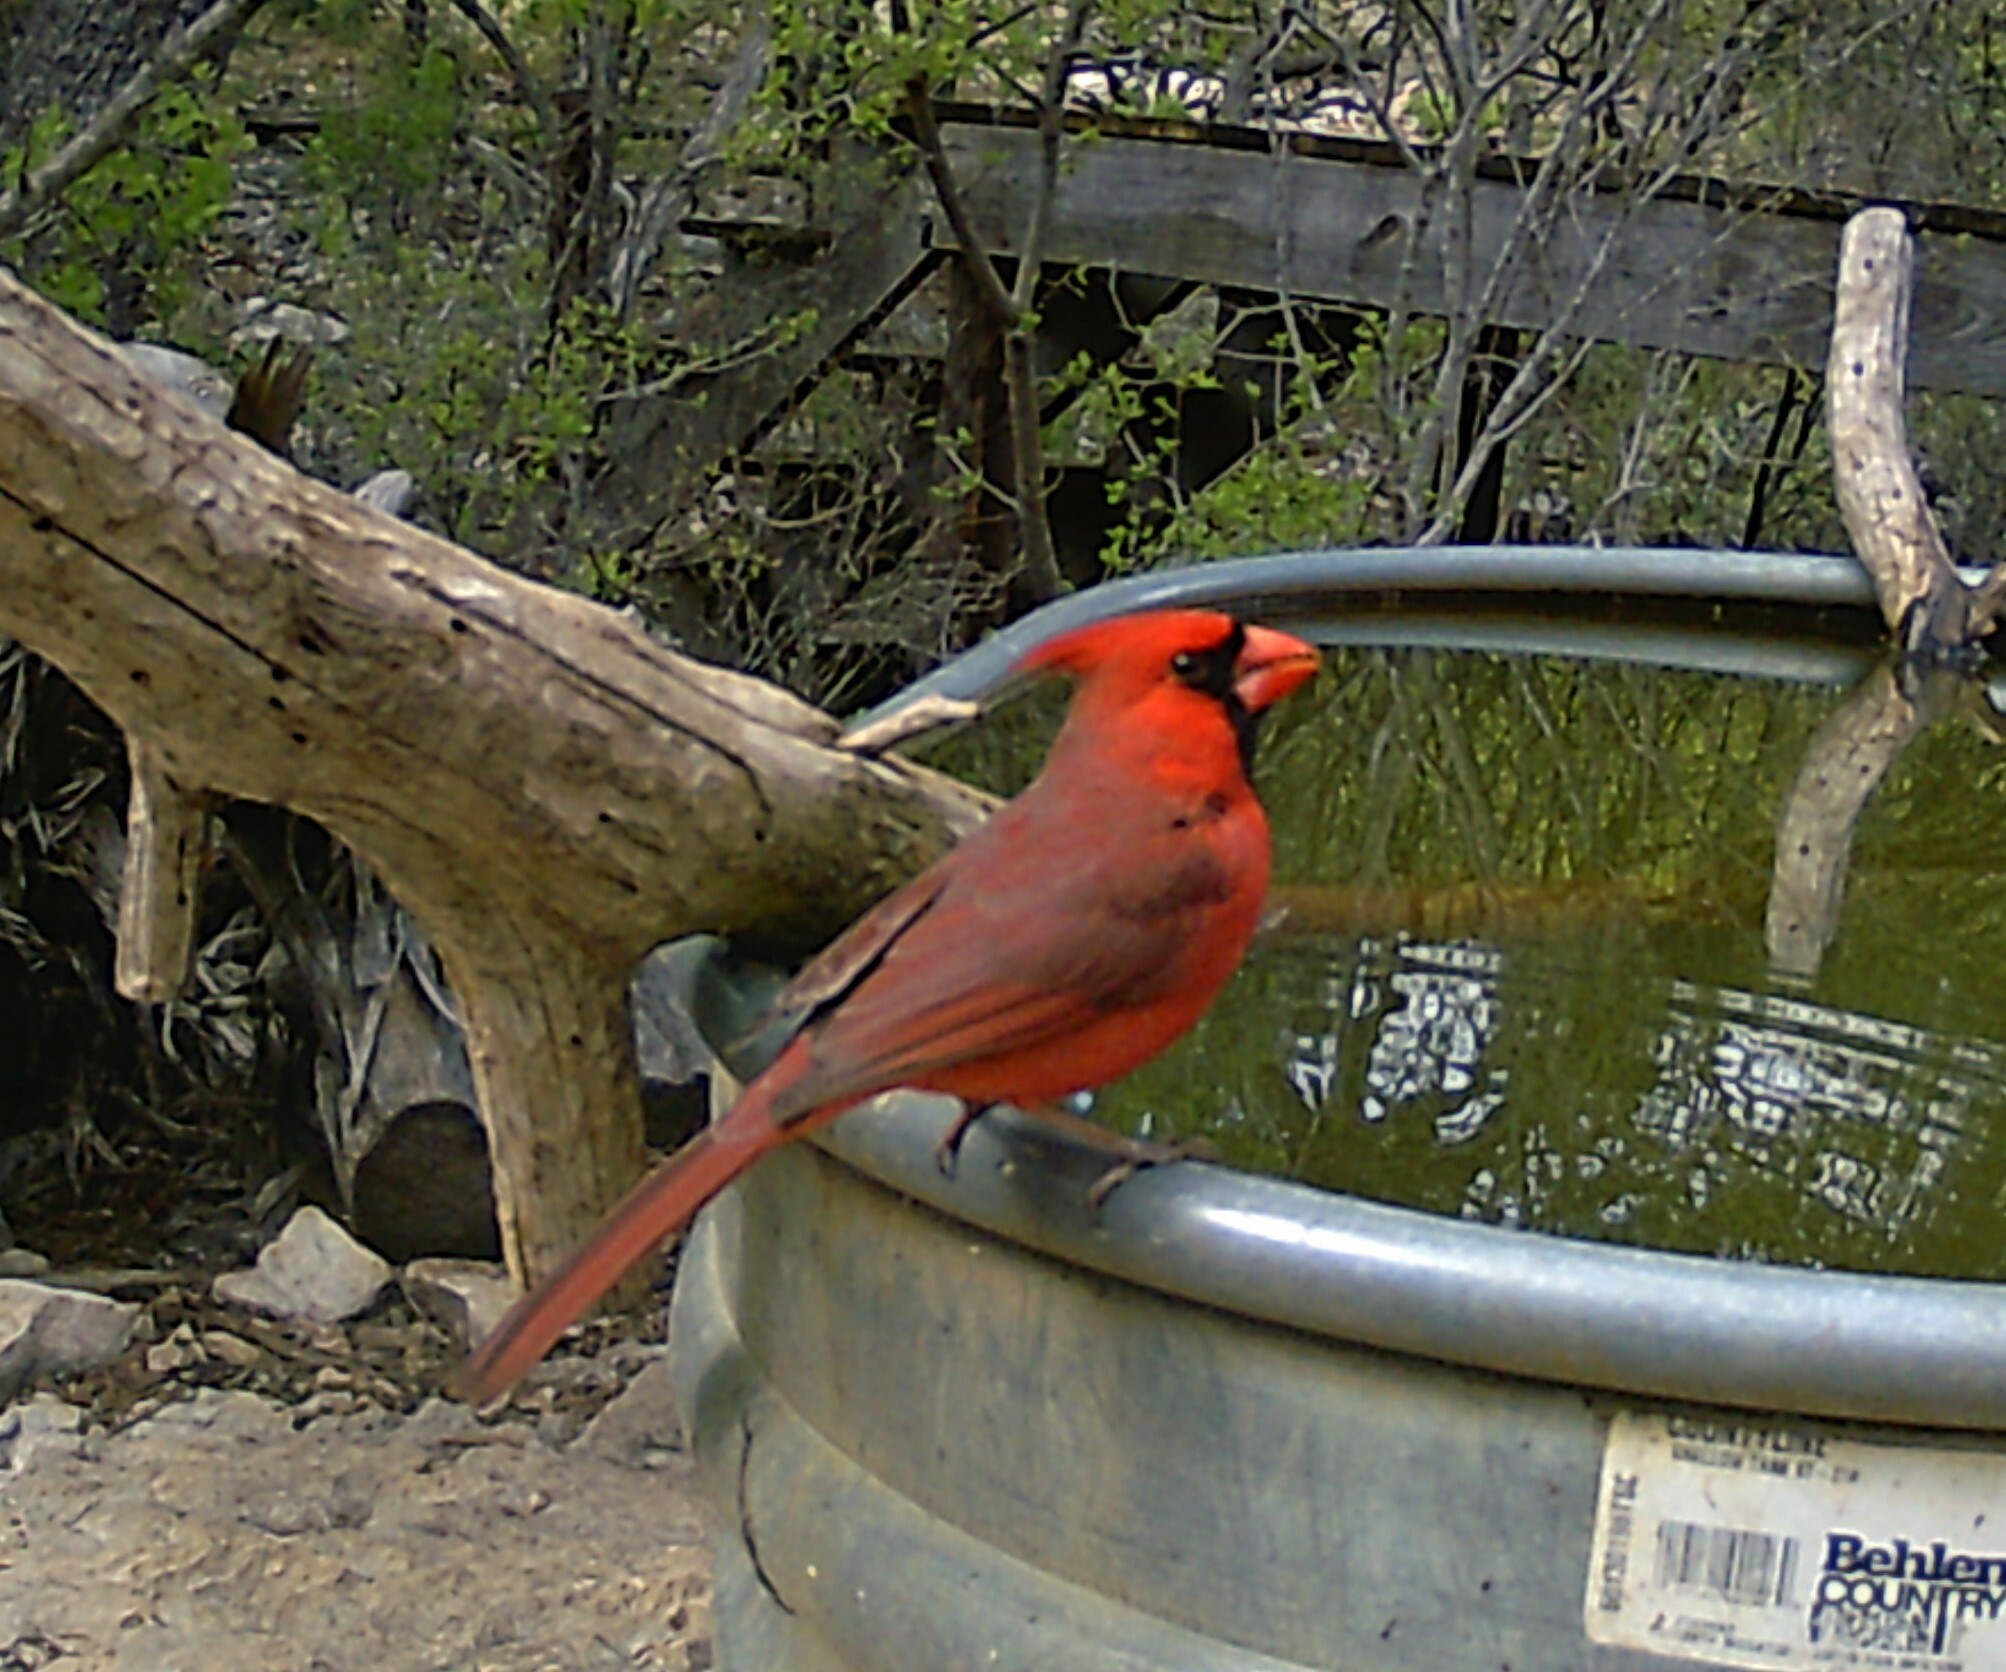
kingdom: Animalia
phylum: Chordata
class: Aves
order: Passeriformes
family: Cardinalidae
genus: Cardinalis
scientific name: Cardinalis cardinalis
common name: Northern cardinal
